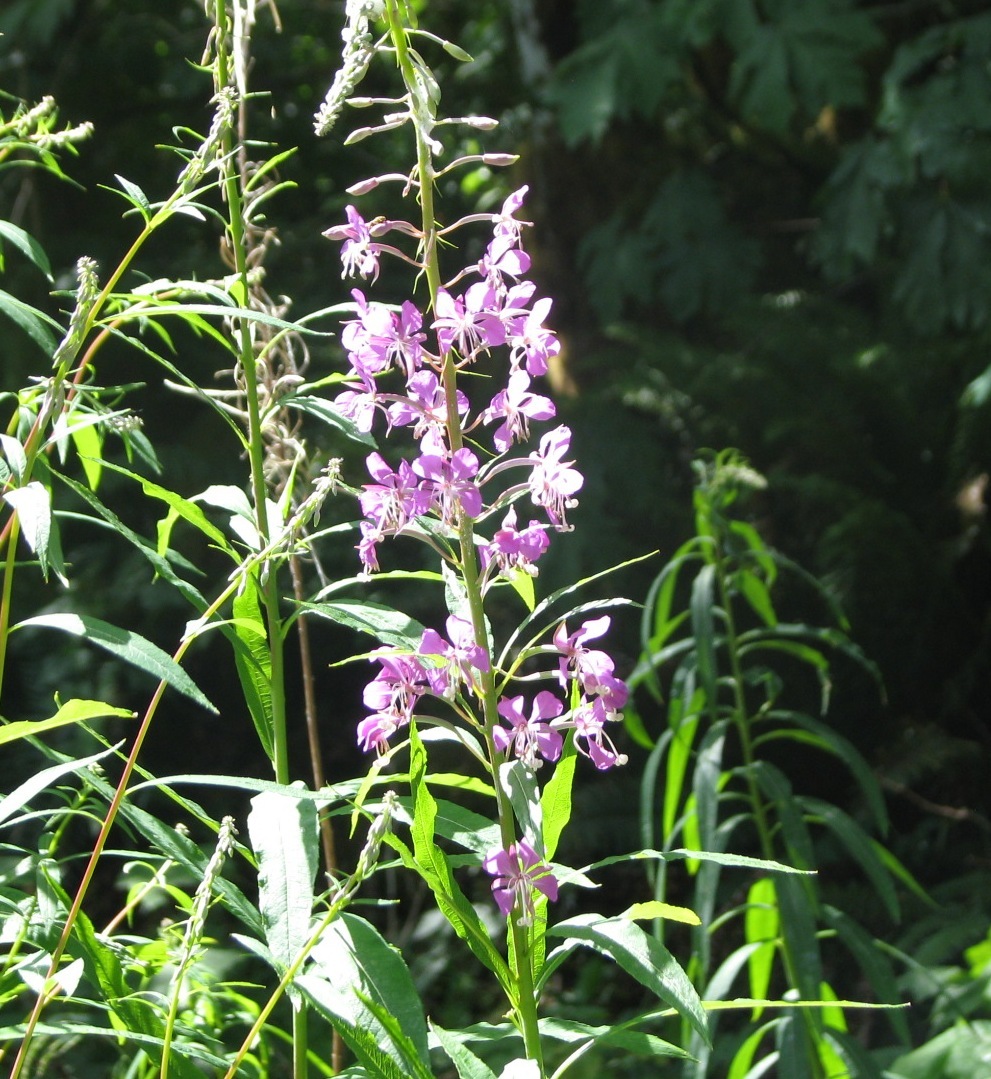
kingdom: Plantae
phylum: Tracheophyta
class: Magnoliopsida
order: Myrtales
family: Onagraceae
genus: Chamaenerion
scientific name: Chamaenerion angustifolium
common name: Fireweed
